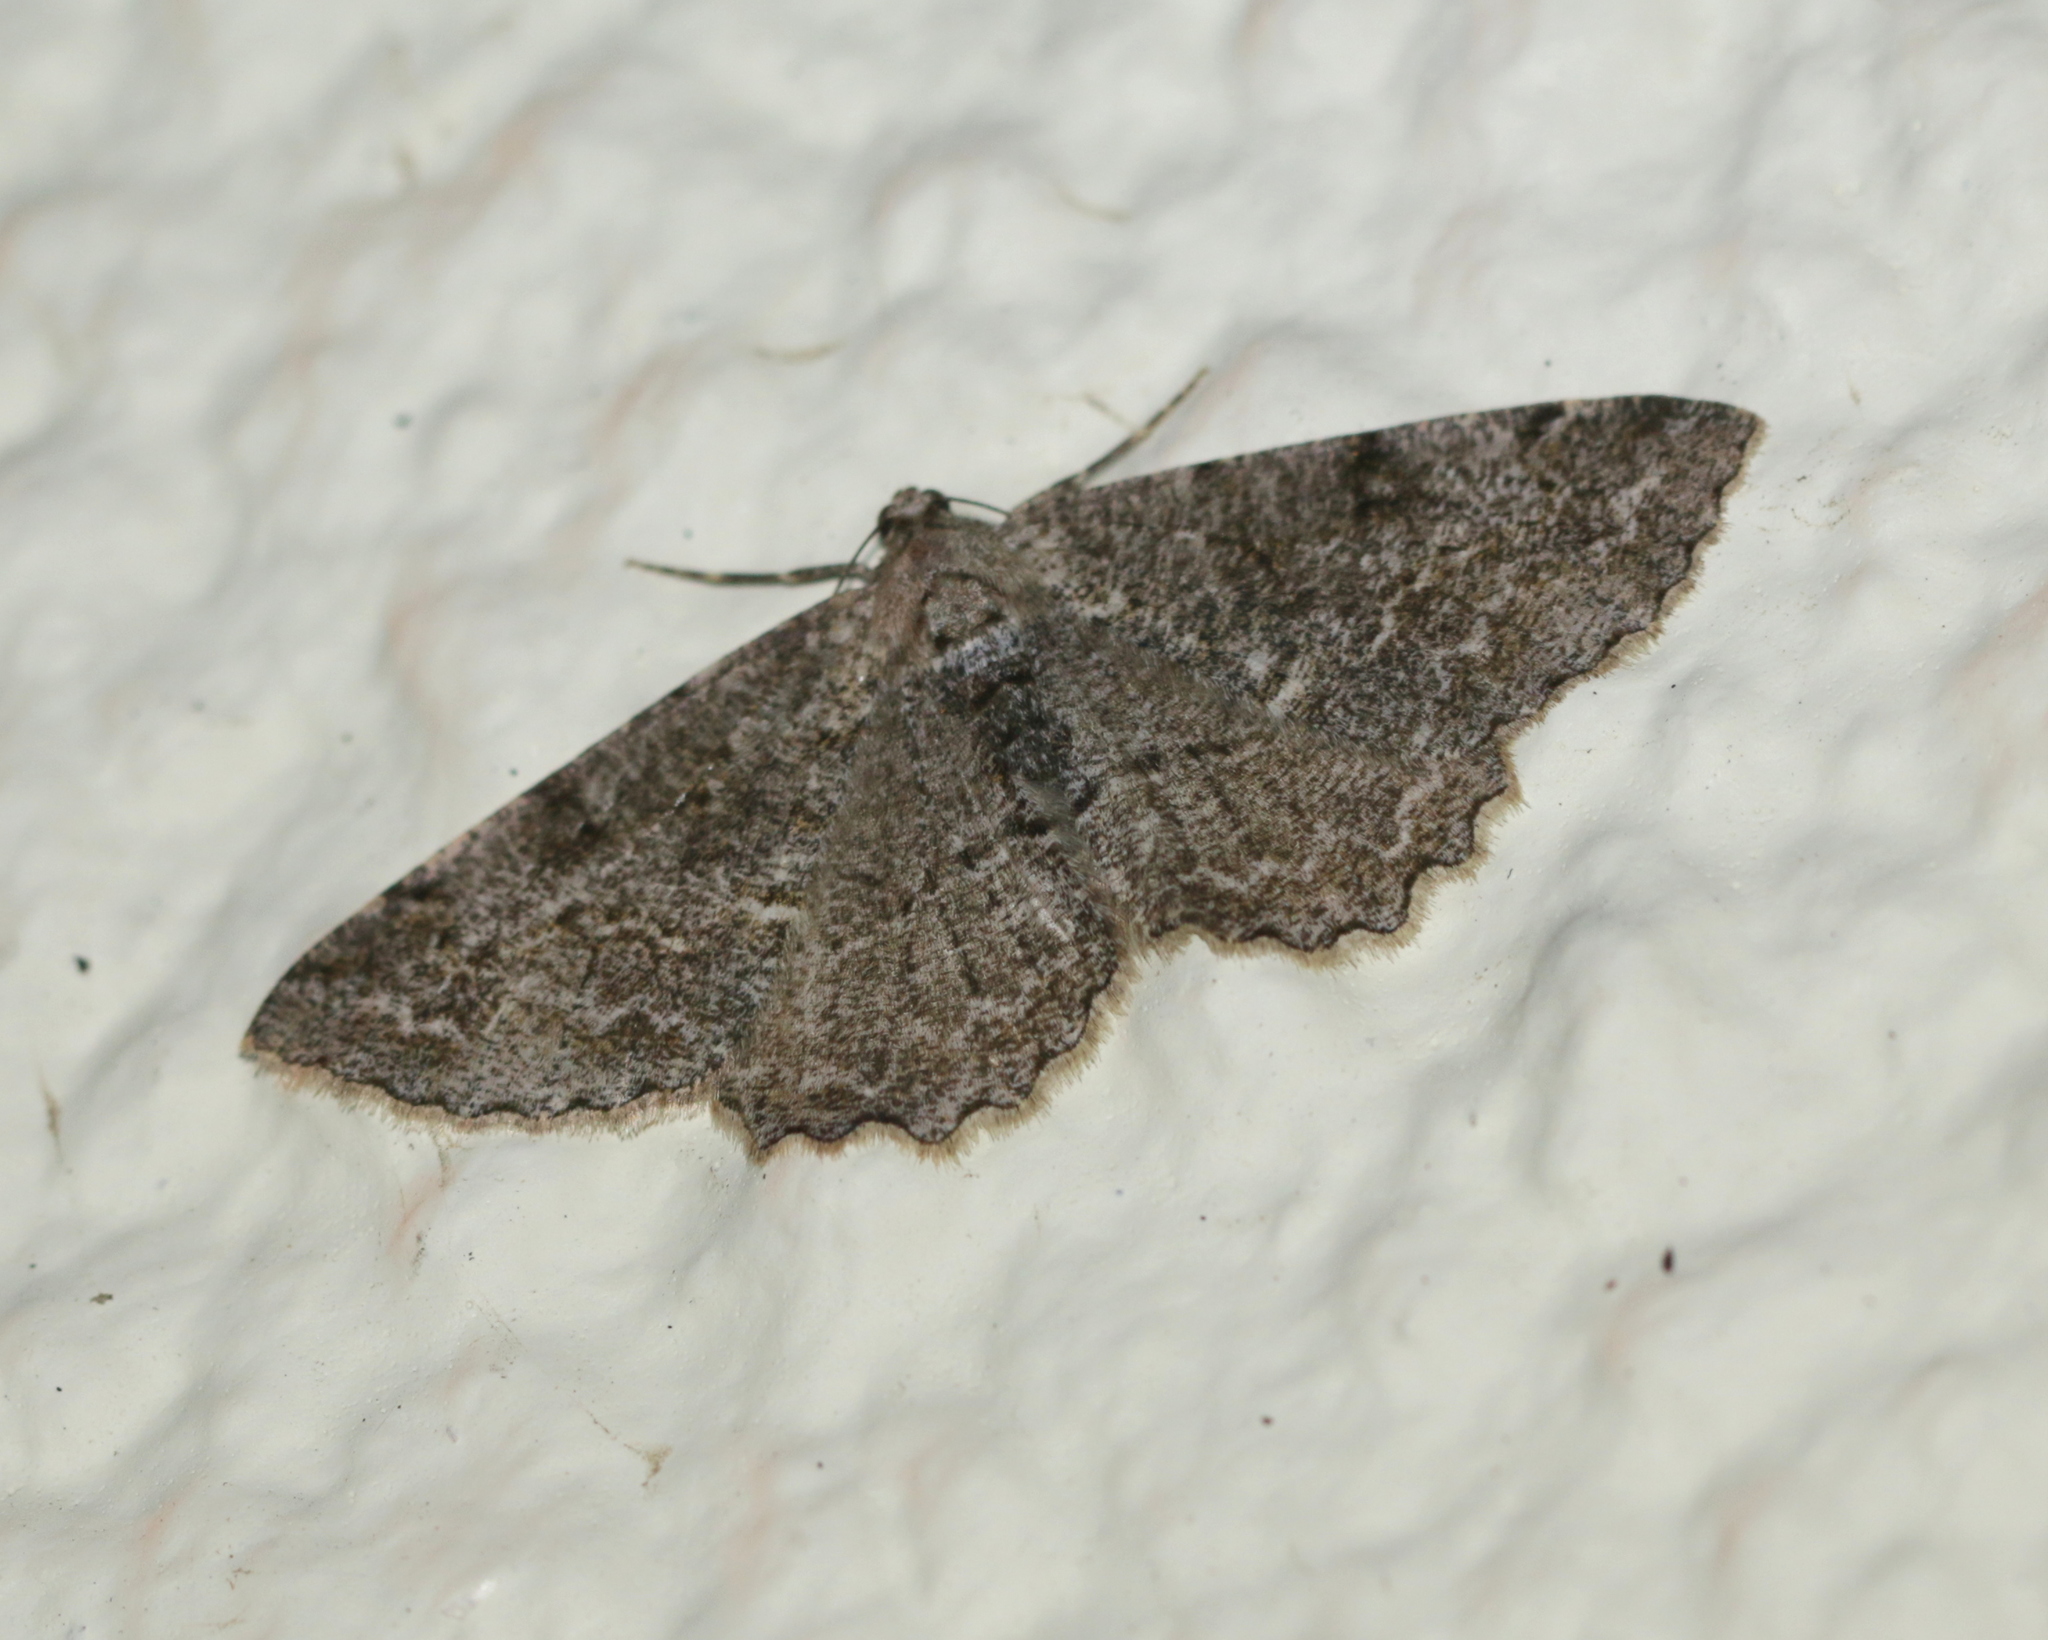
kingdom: Animalia
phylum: Arthropoda
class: Insecta
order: Lepidoptera
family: Geometridae
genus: Alcis
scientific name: Alcis repandata
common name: Mottled beauty
